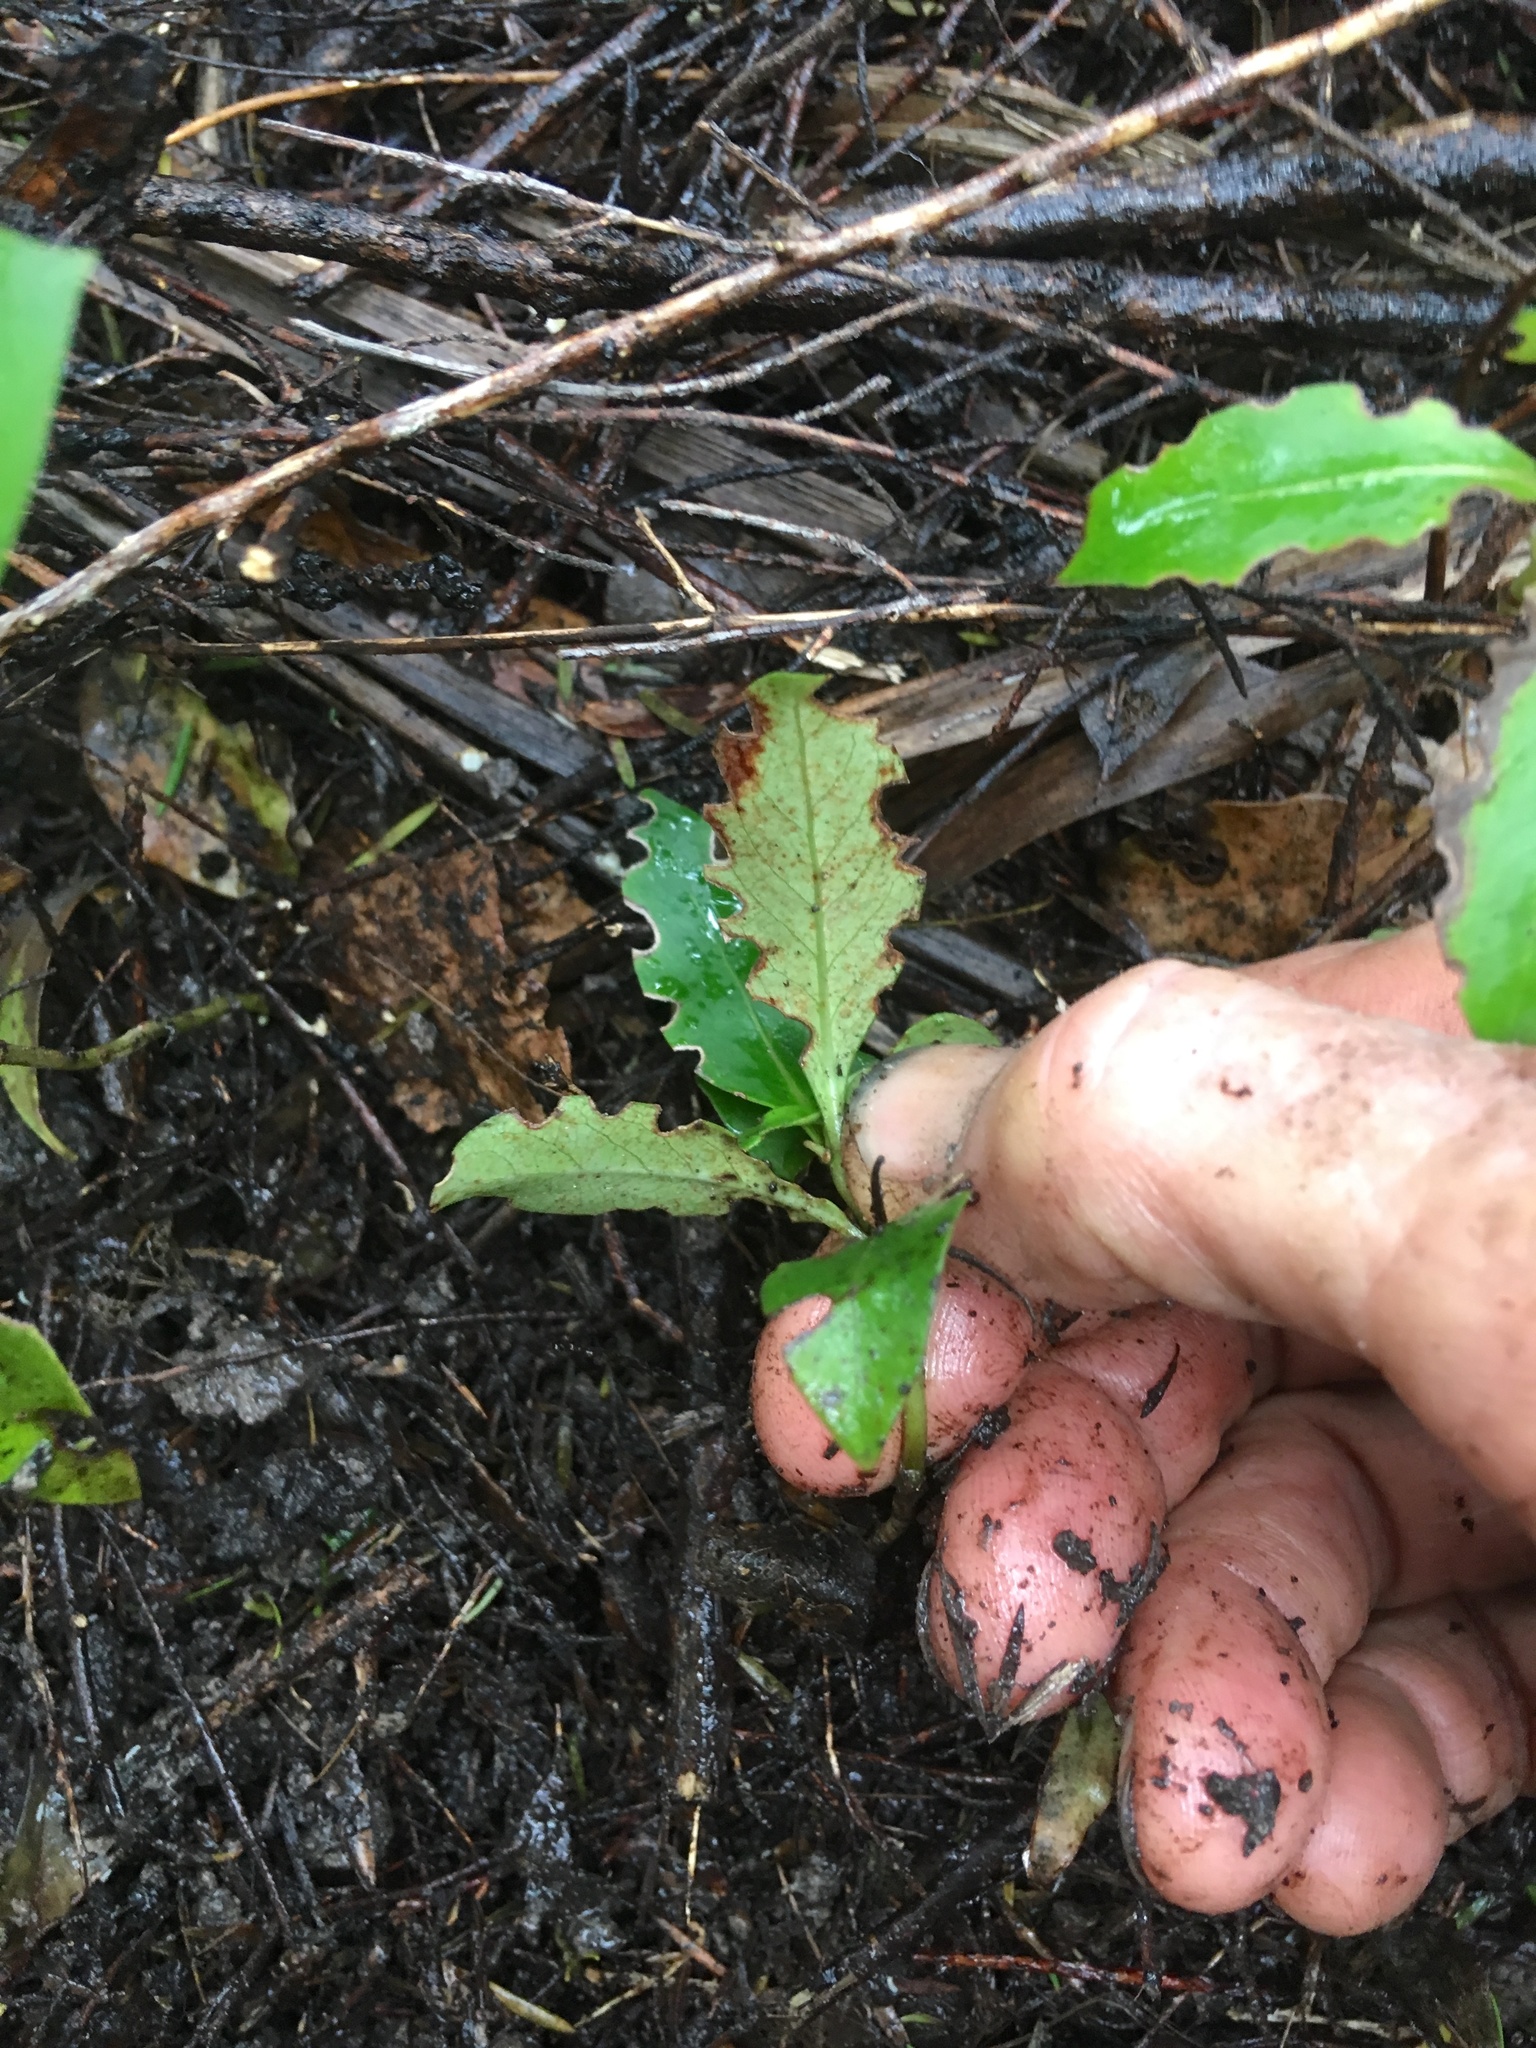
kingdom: Plantae
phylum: Tracheophyta
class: Magnoliopsida
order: Gentianales
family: Rubiaceae
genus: Coprosma
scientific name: Coprosma robusta
